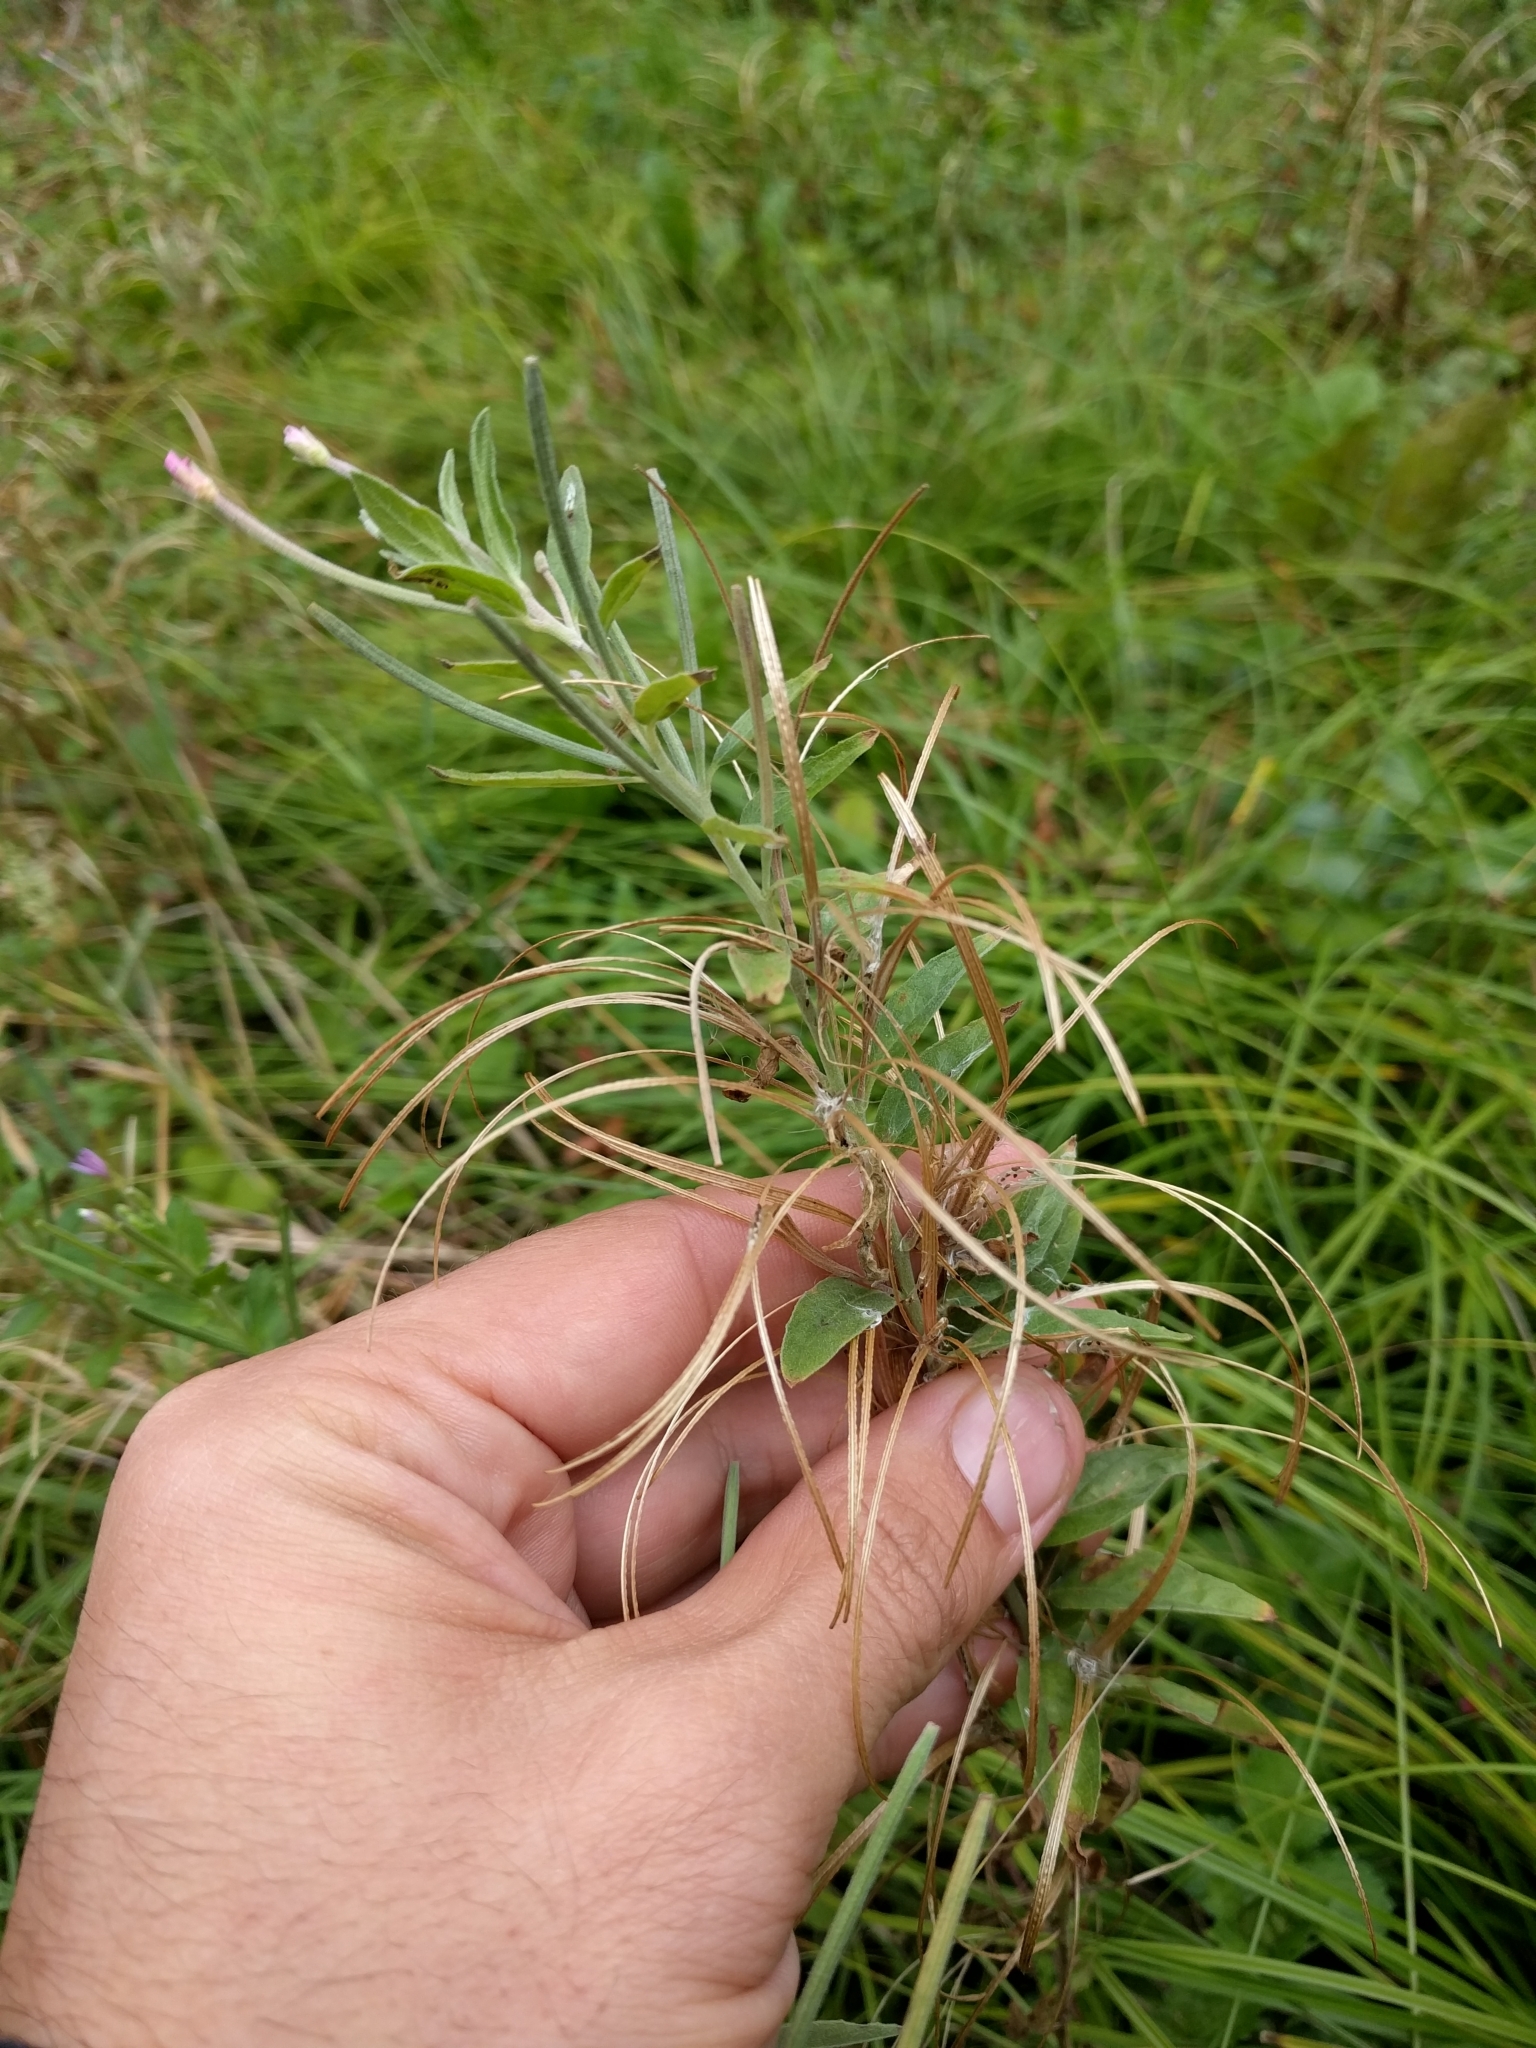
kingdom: Plantae
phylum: Tracheophyta
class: Magnoliopsida
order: Myrtales
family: Onagraceae
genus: Epilobium
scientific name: Epilobium ciliatum
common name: American willowherb
